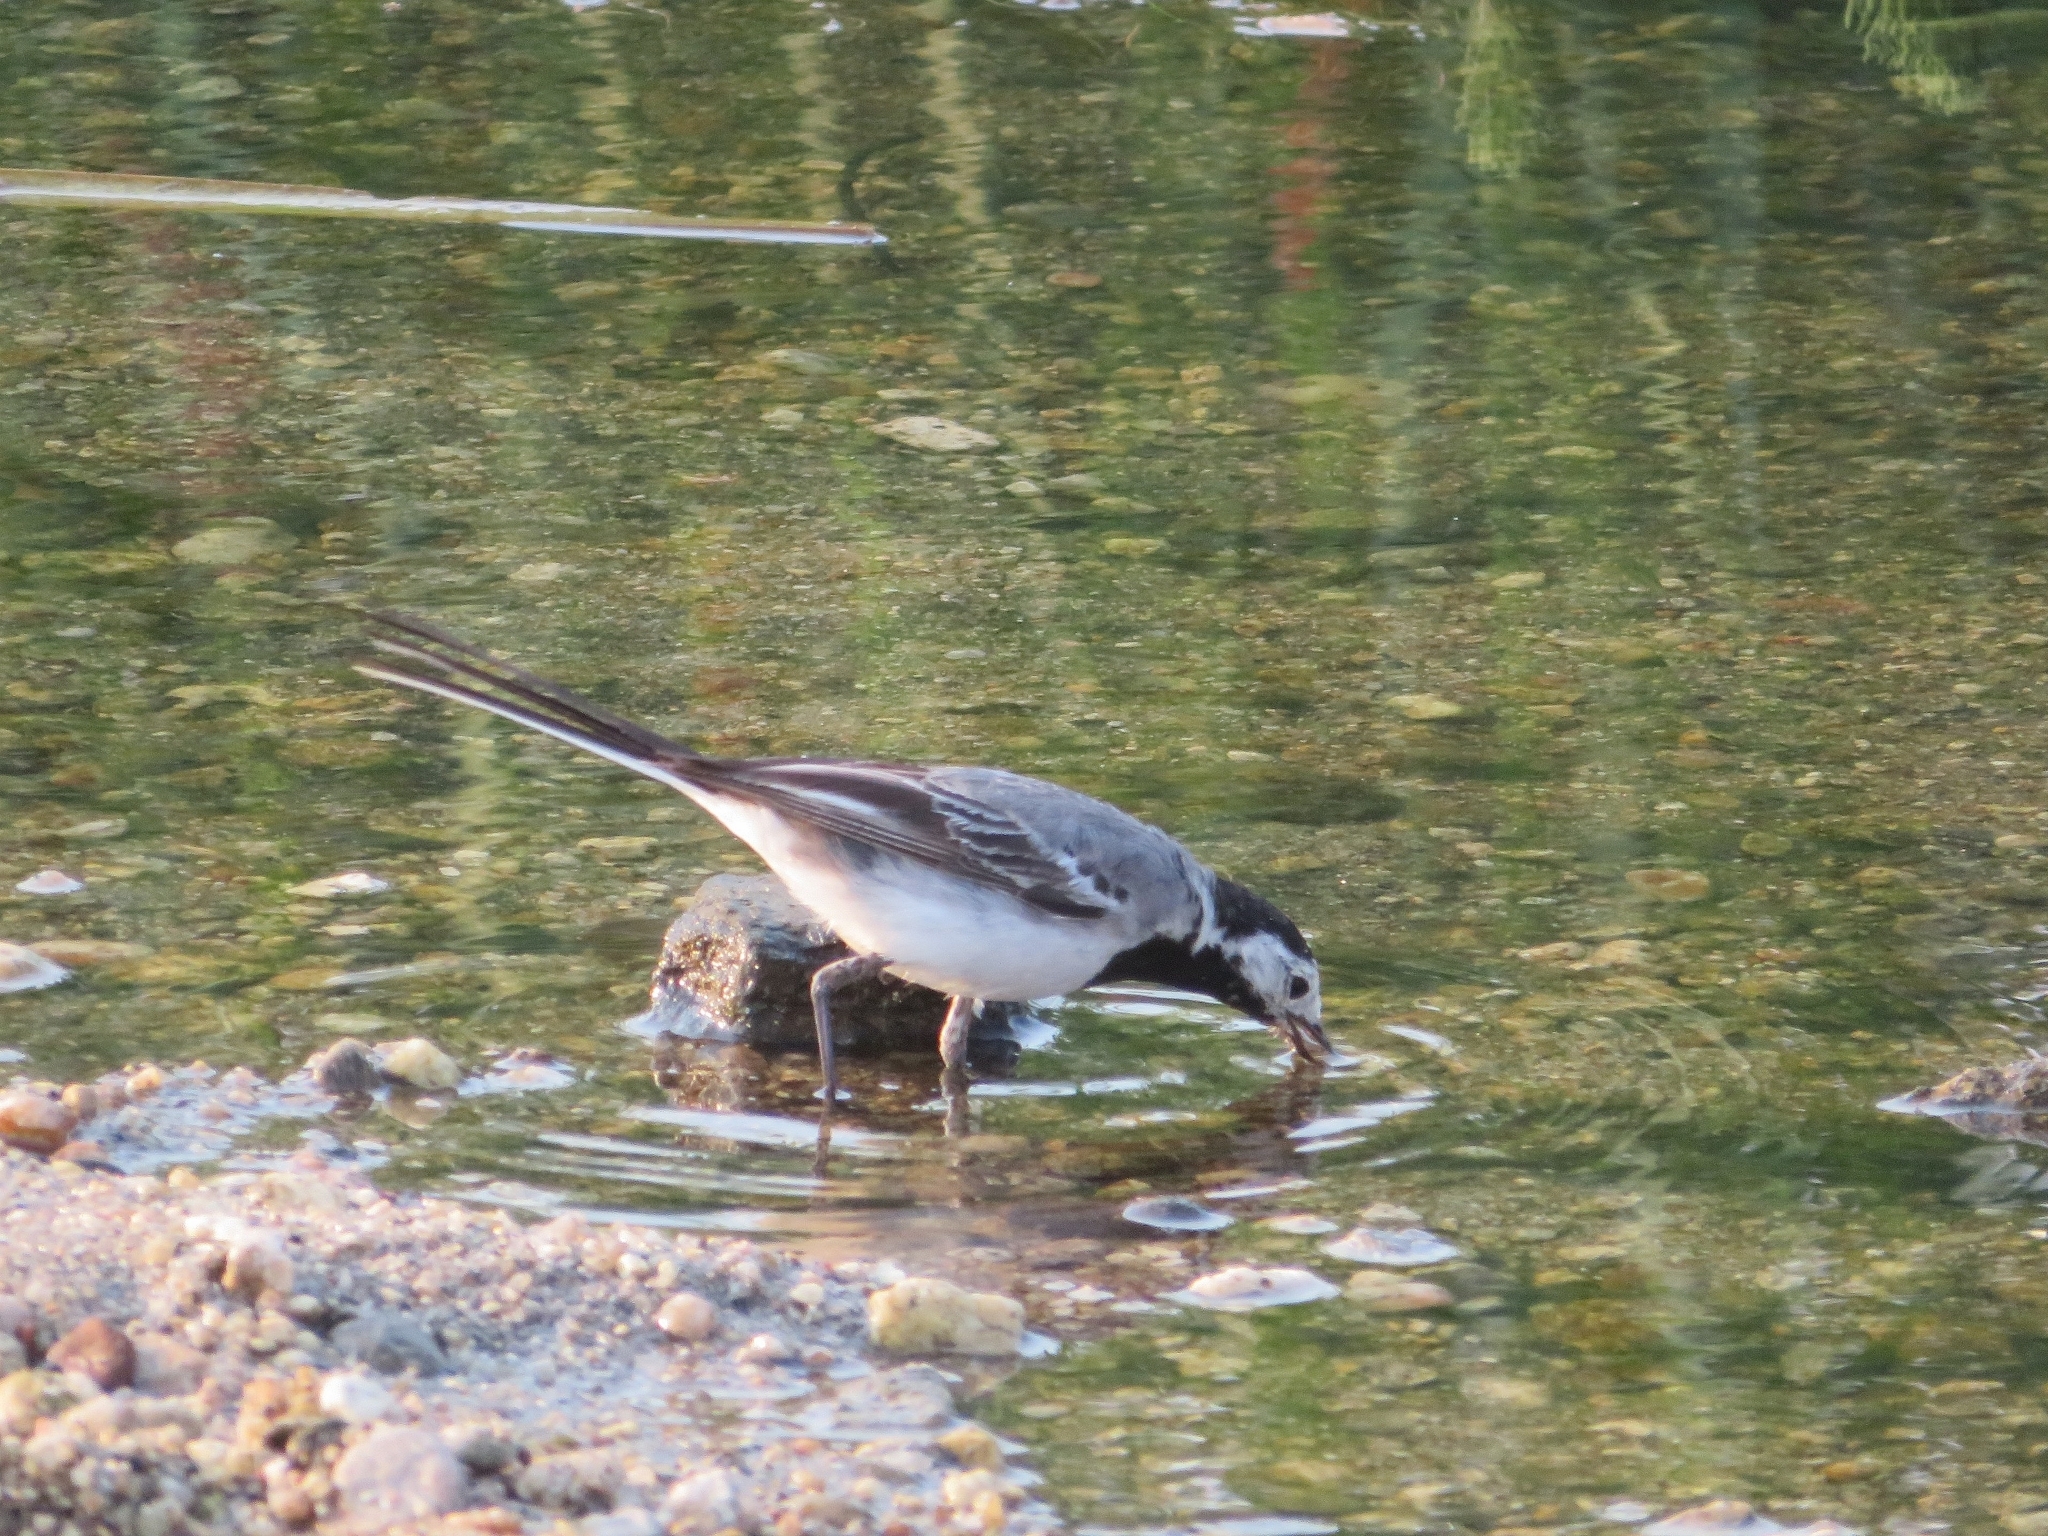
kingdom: Animalia
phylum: Chordata
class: Aves
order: Passeriformes
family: Motacillidae
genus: Motacilla
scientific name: Motacilla alba
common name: White wagtail
